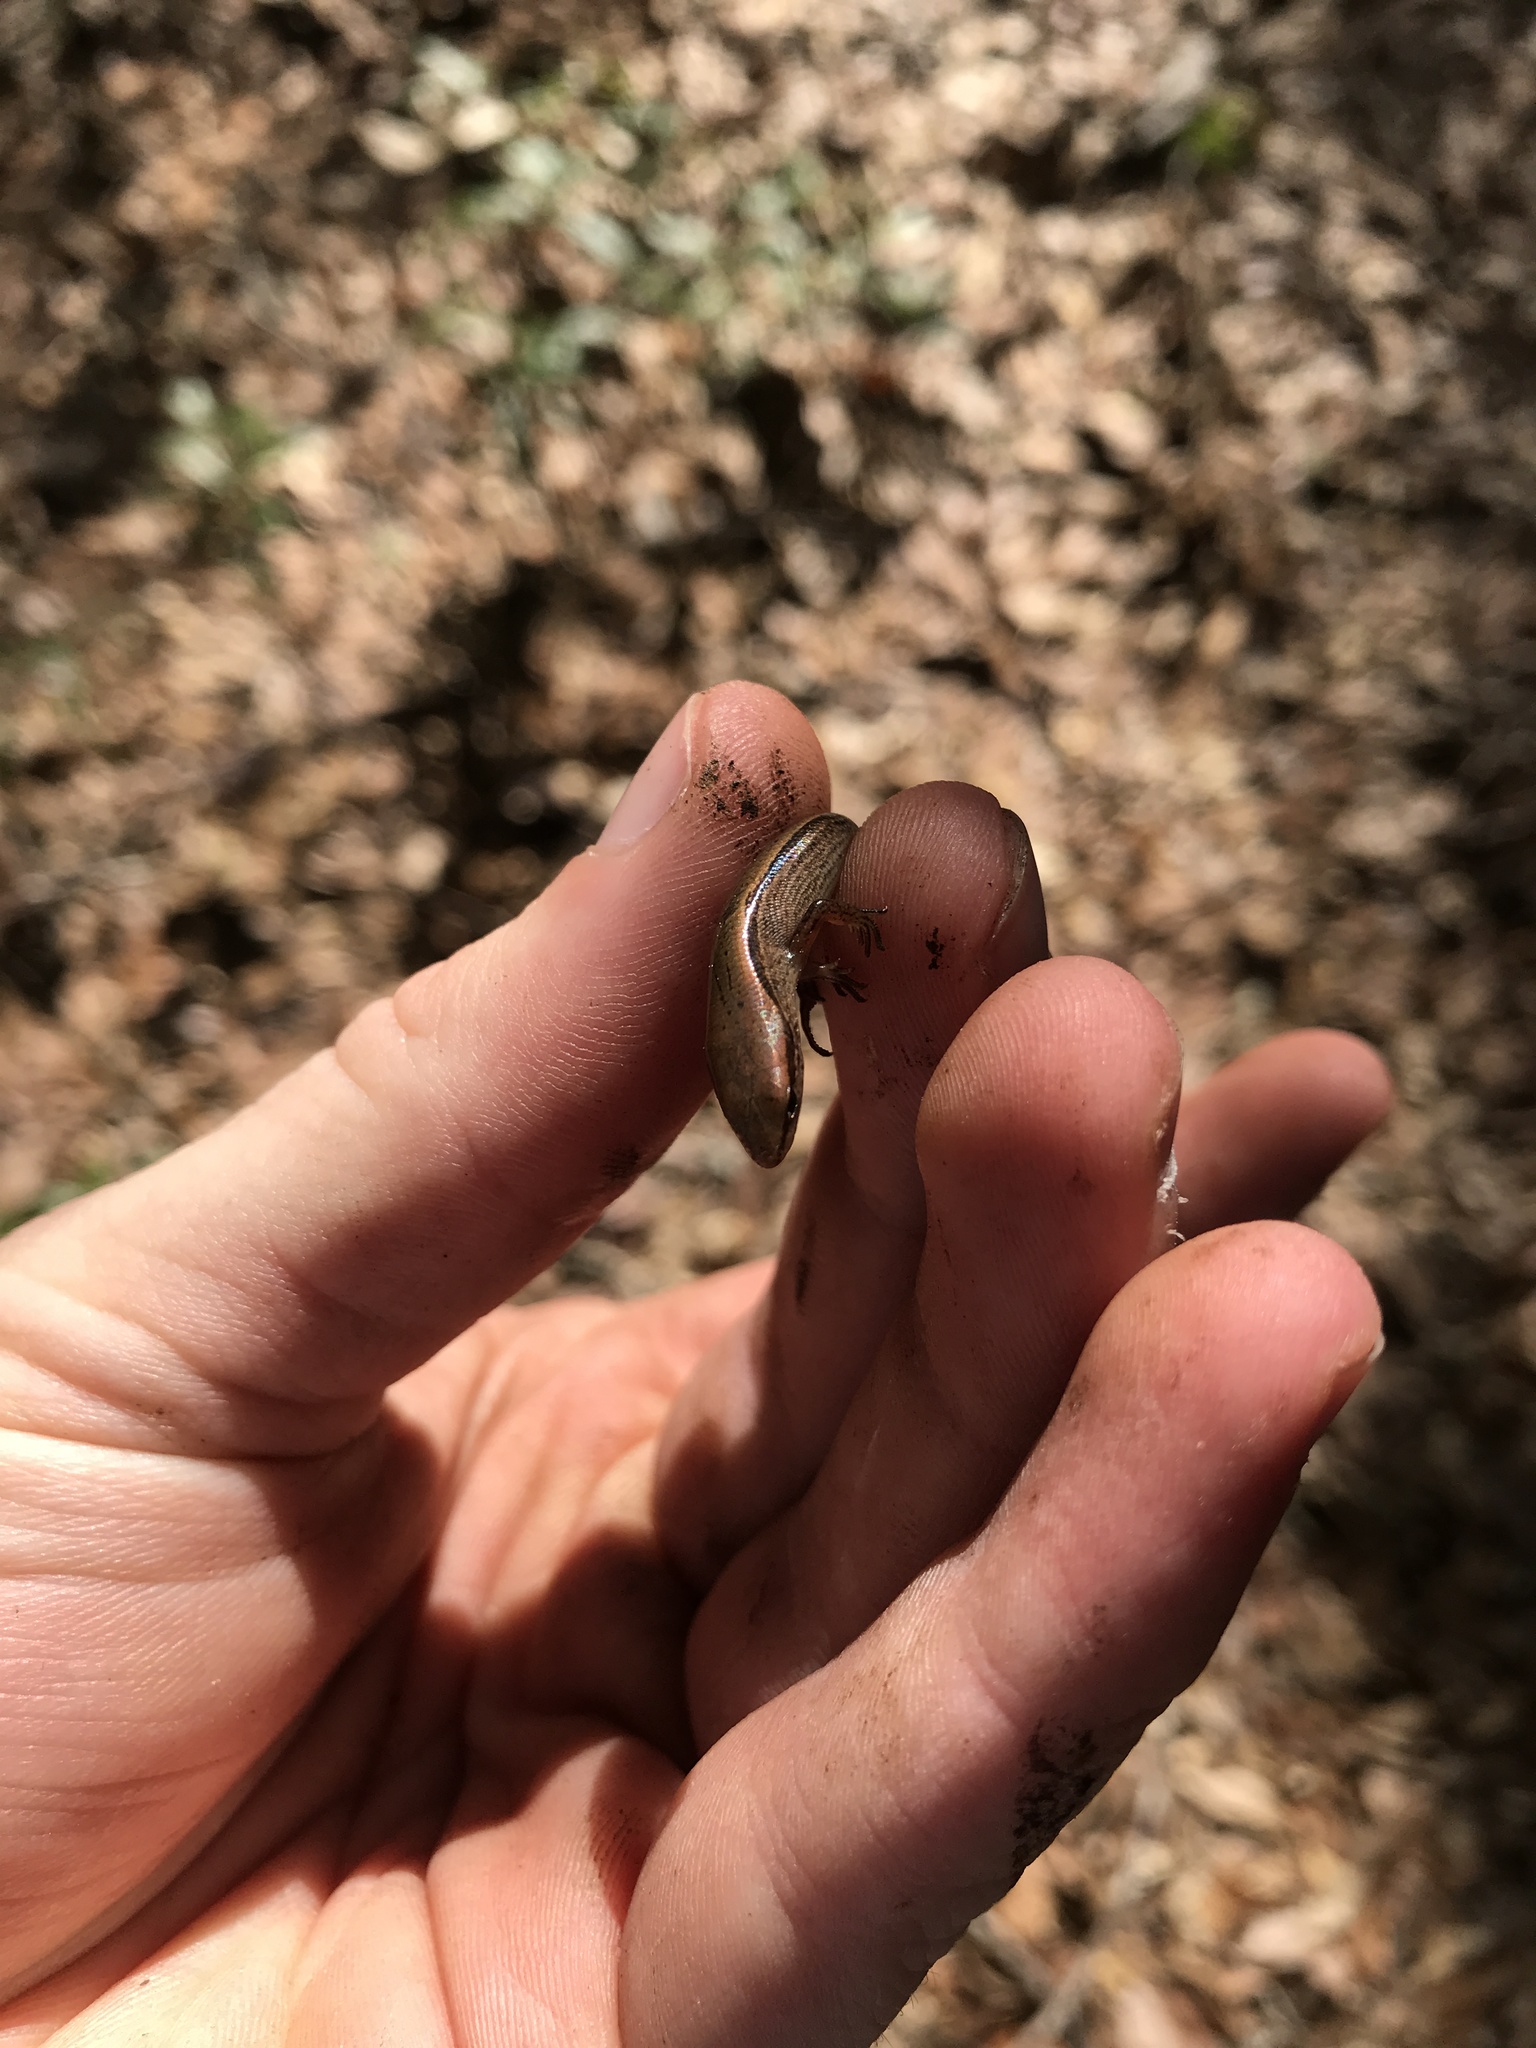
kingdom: Animalia
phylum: Chordata
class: Squamata
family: Scincidae
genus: Scincella
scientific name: Scincella lateralis
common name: Ground skink
